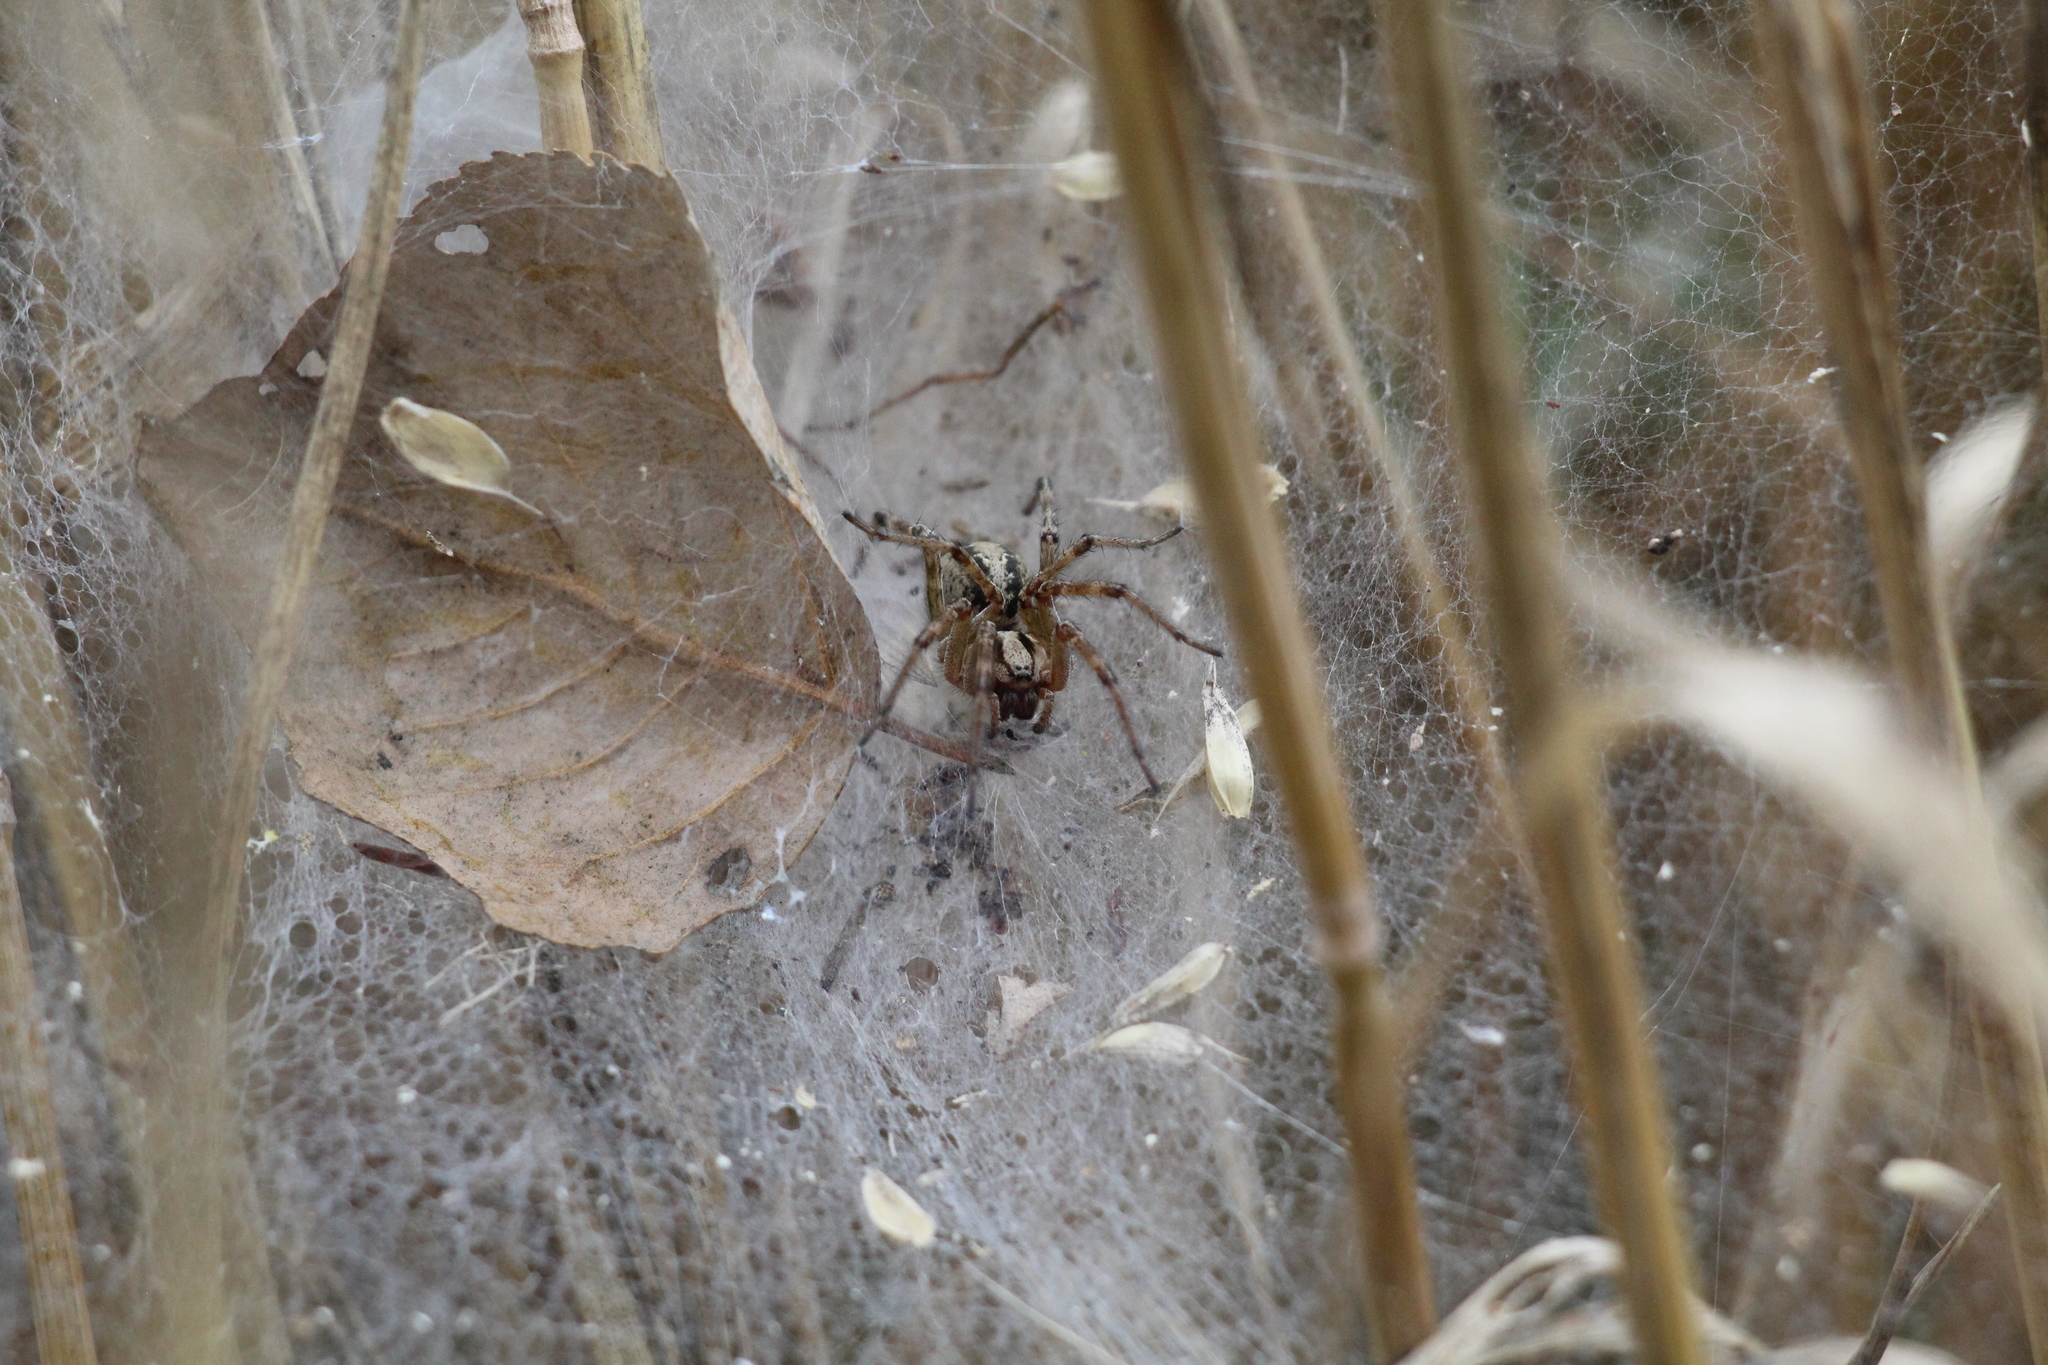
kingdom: Animalia
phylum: Arthropoda
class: Arachnida
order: Araneae
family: Agelenidae
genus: Agelena
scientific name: Agelena labyrinthica
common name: Labyrinth spider
